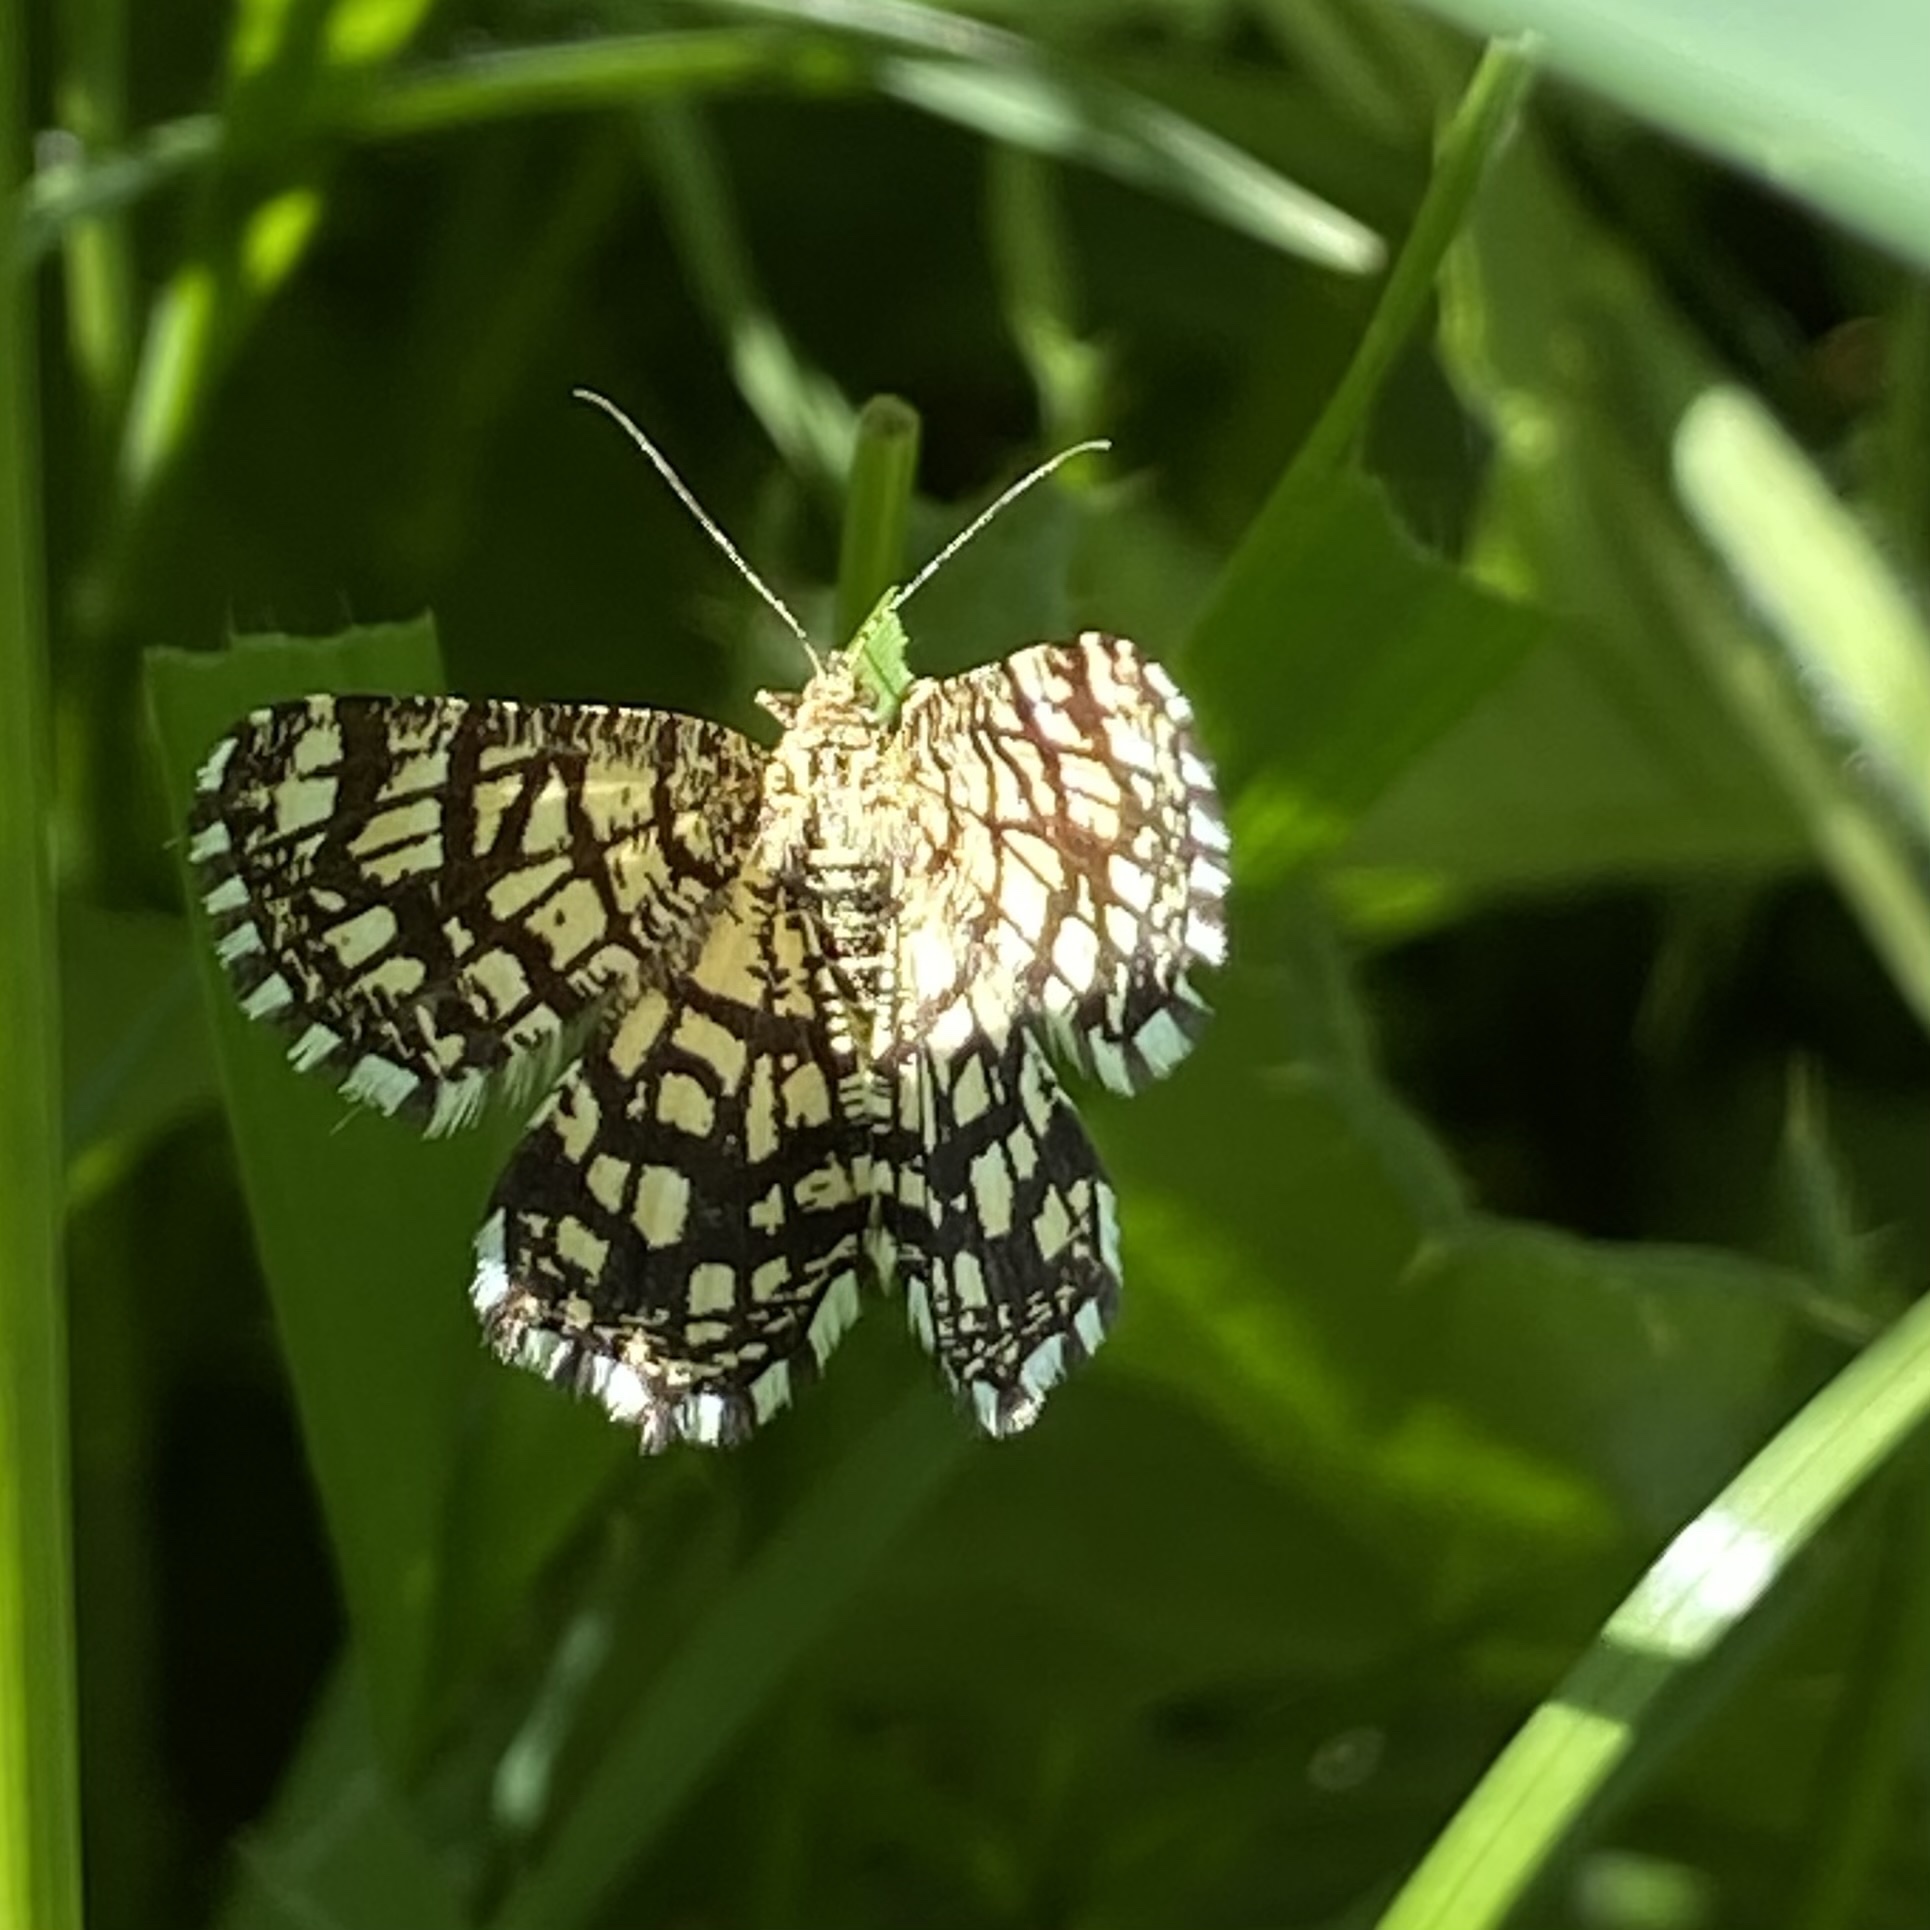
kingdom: Animalia
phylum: Arthropoda
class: Insecta
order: Lepidoptera
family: Geometridae
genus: Chiasmia
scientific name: Chiasmia clathrata
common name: Latticed heath
